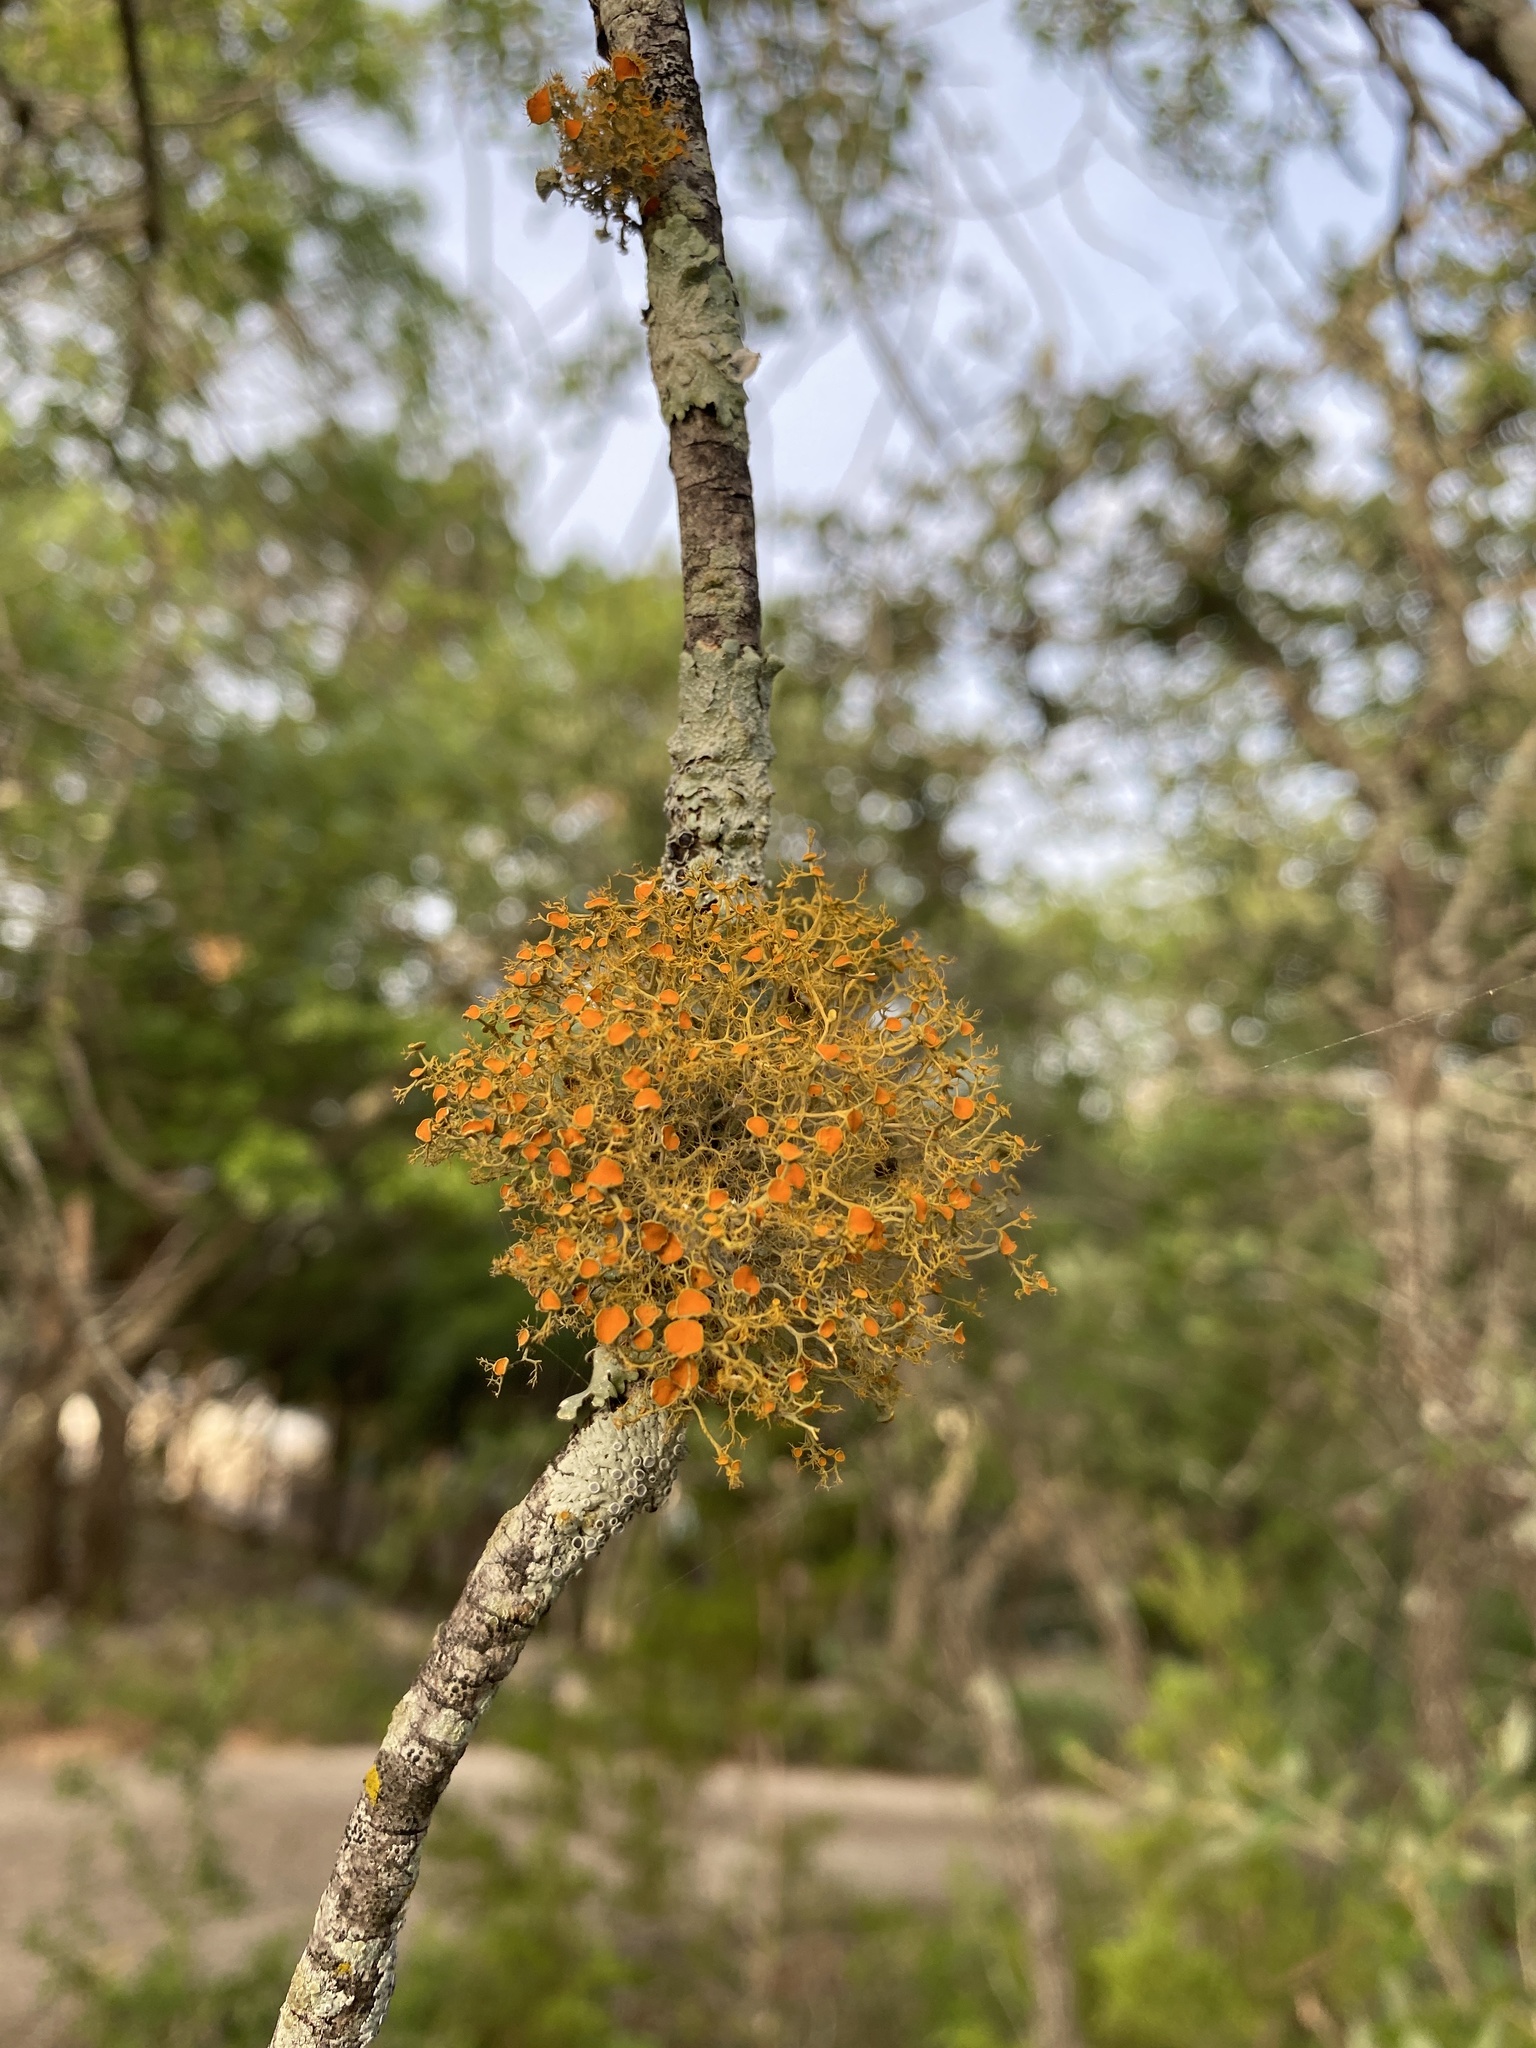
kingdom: Fungi
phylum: Ascomycota
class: Lecanoromycetes
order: Teloschistales
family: Teloschistaceae
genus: Teloschistes
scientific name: Teloschistes exilis
